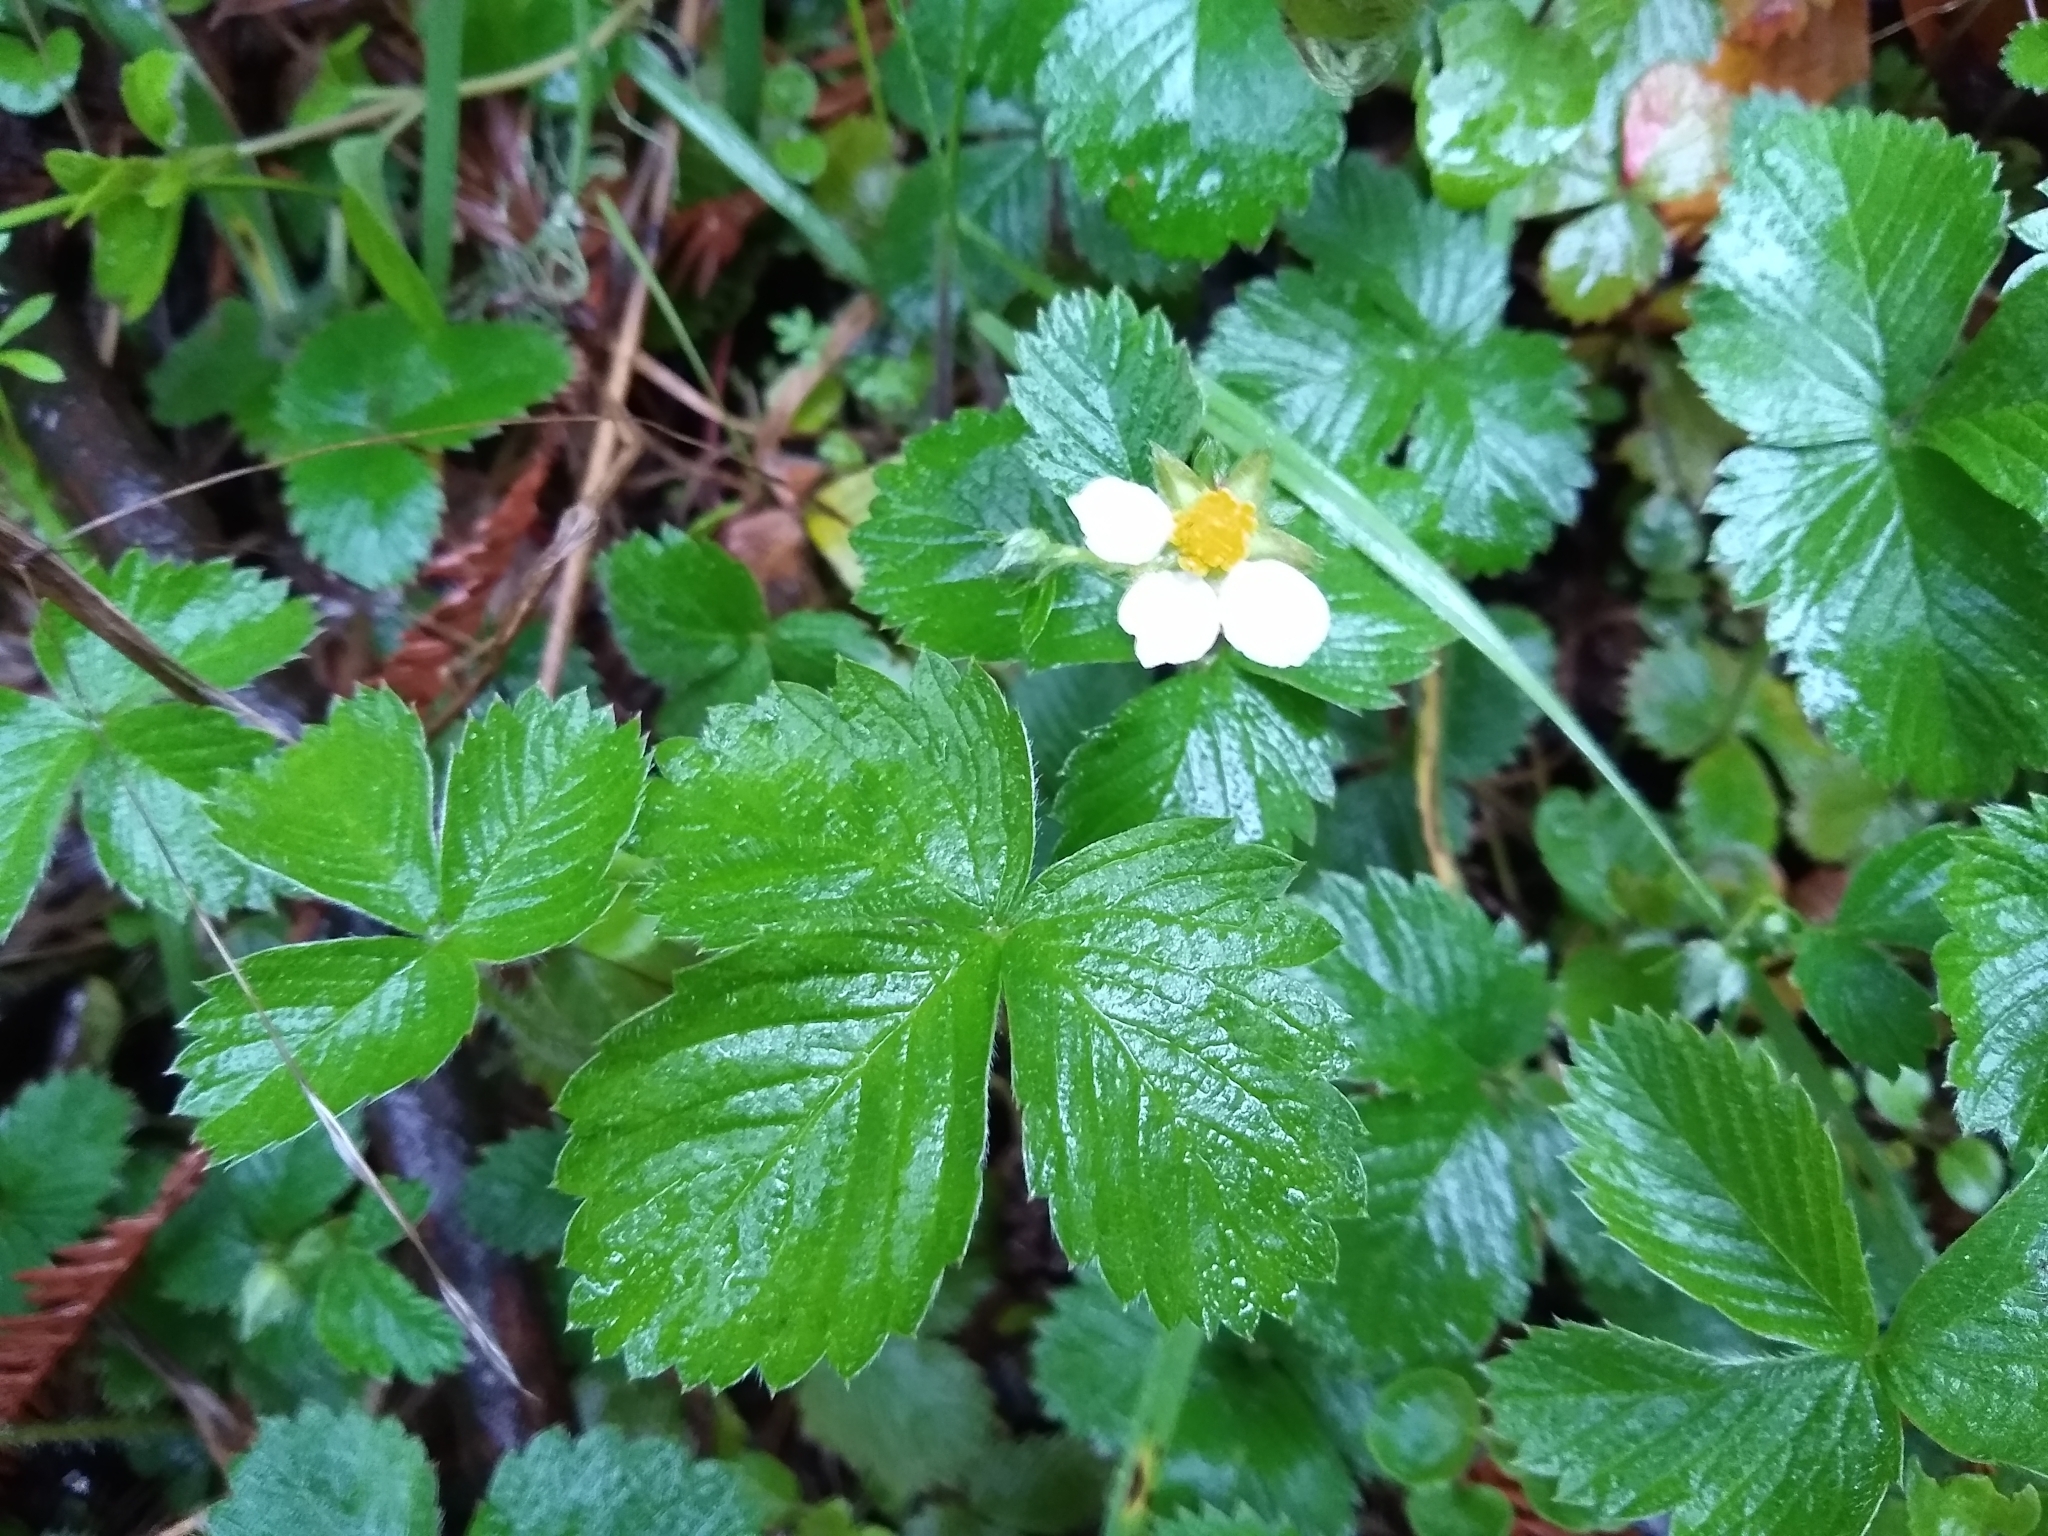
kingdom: Plantae
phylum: Tracheophyta
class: Magnoliopsida
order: Rosales
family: Rosaceae
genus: Fragaria
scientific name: Fragaria vesca
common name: Wild strawberry
